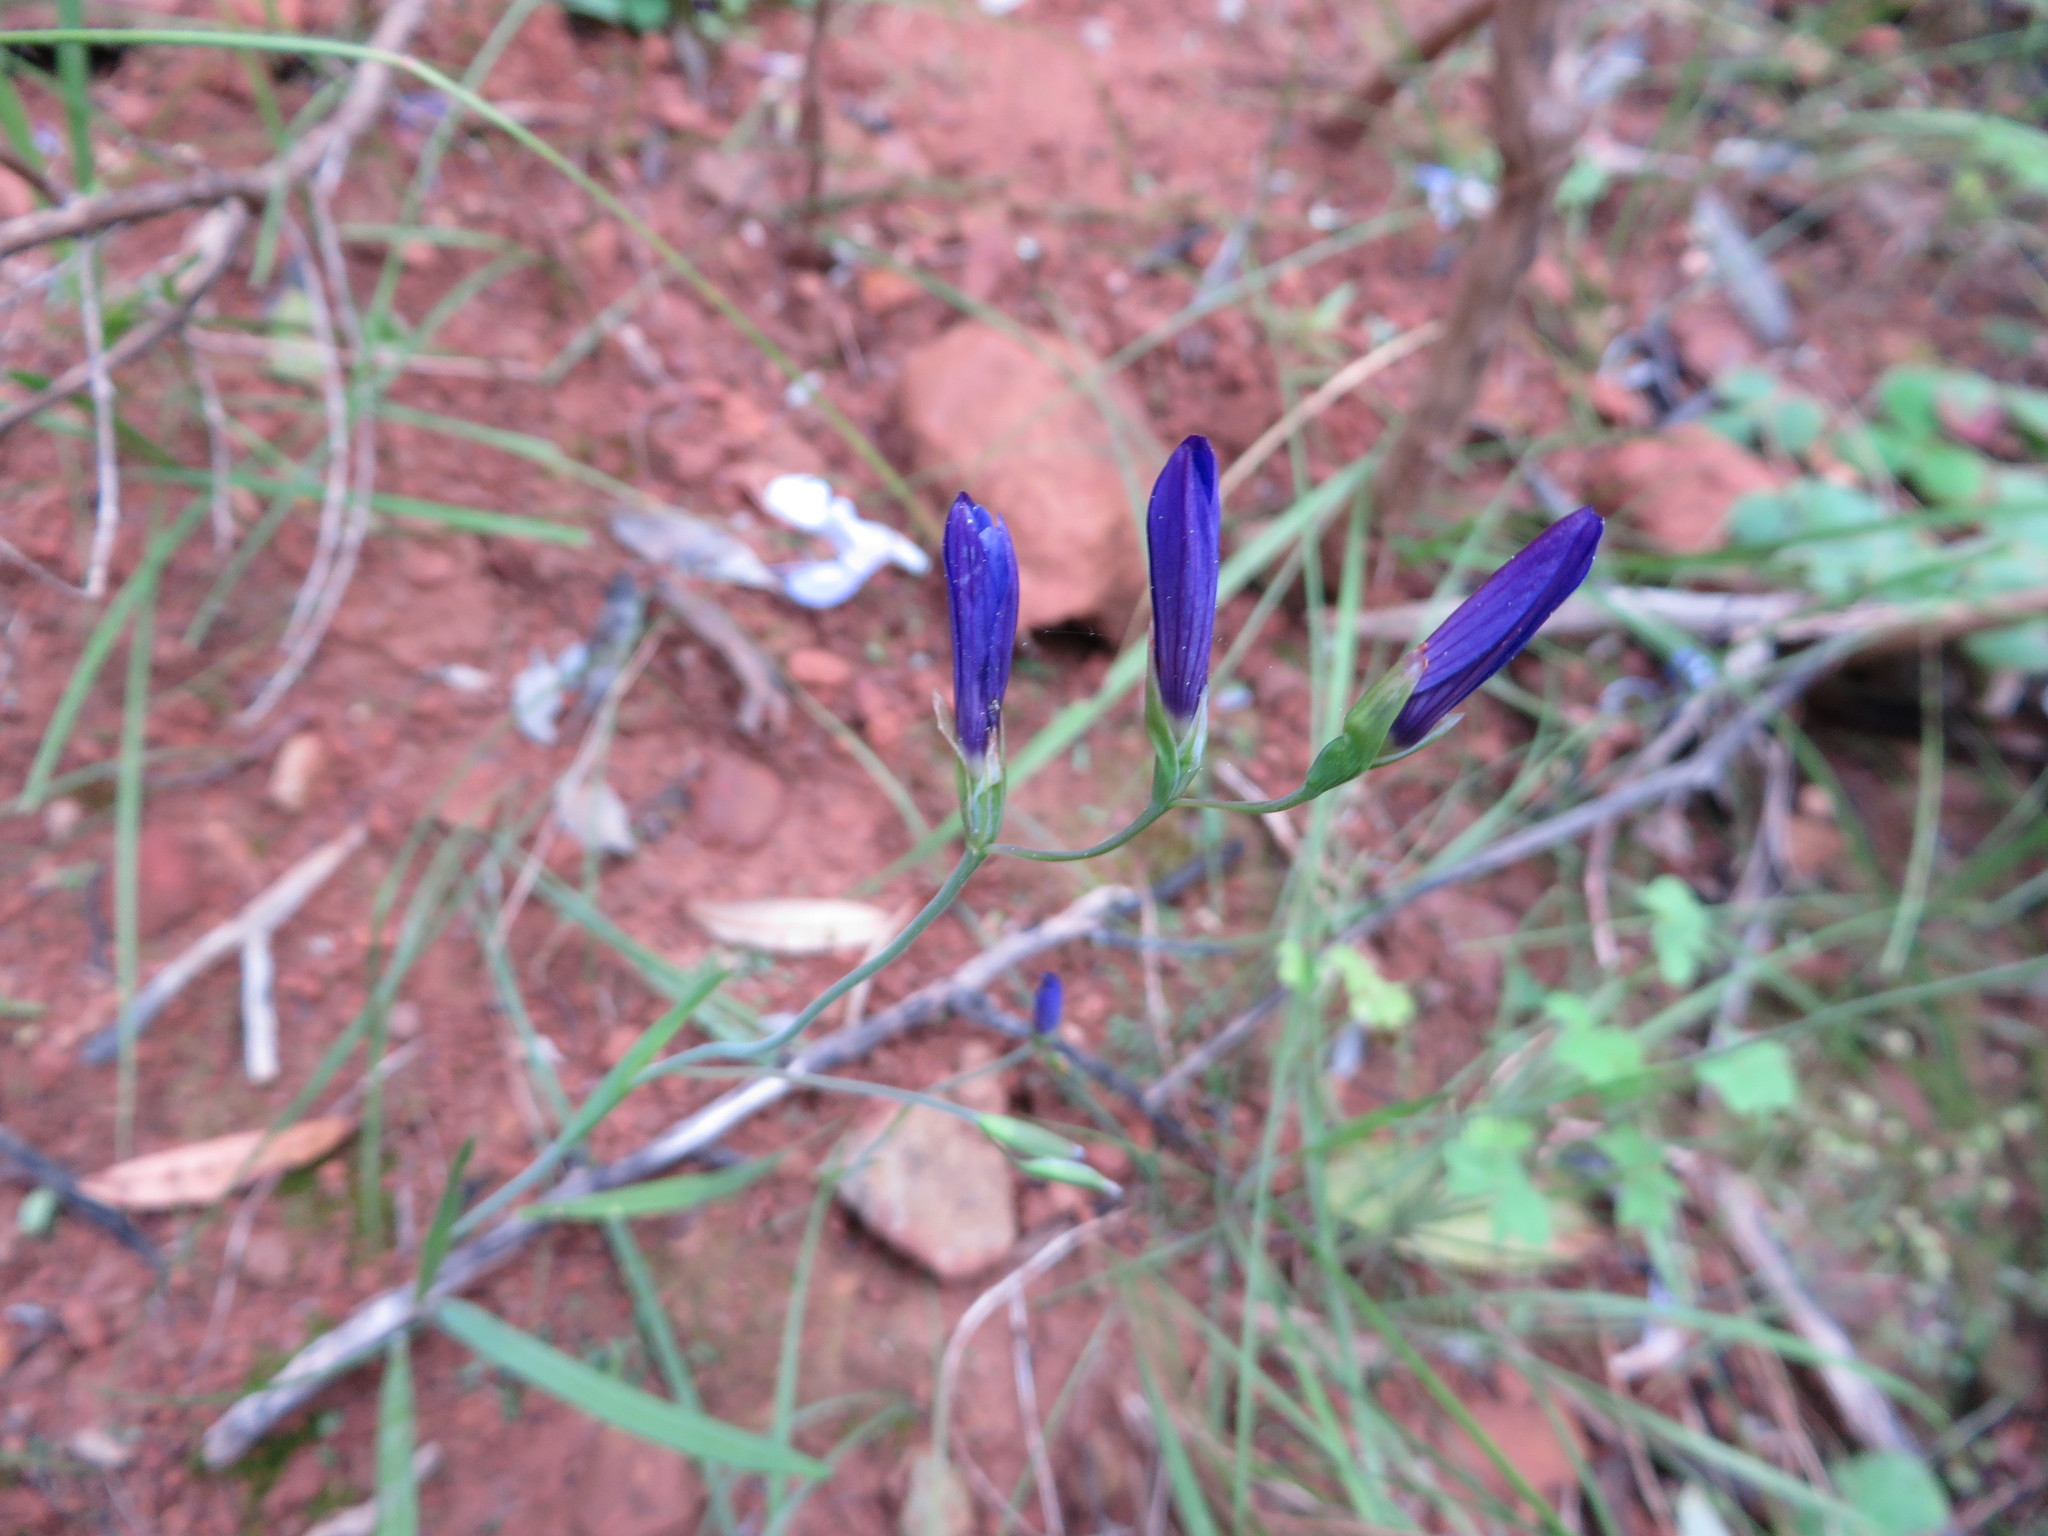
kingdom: Plantae
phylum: Tracheophyta
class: Liliopsida
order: Asparagales
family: Iridaceae
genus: Geissorhiza
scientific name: Geissorhiza aspera
